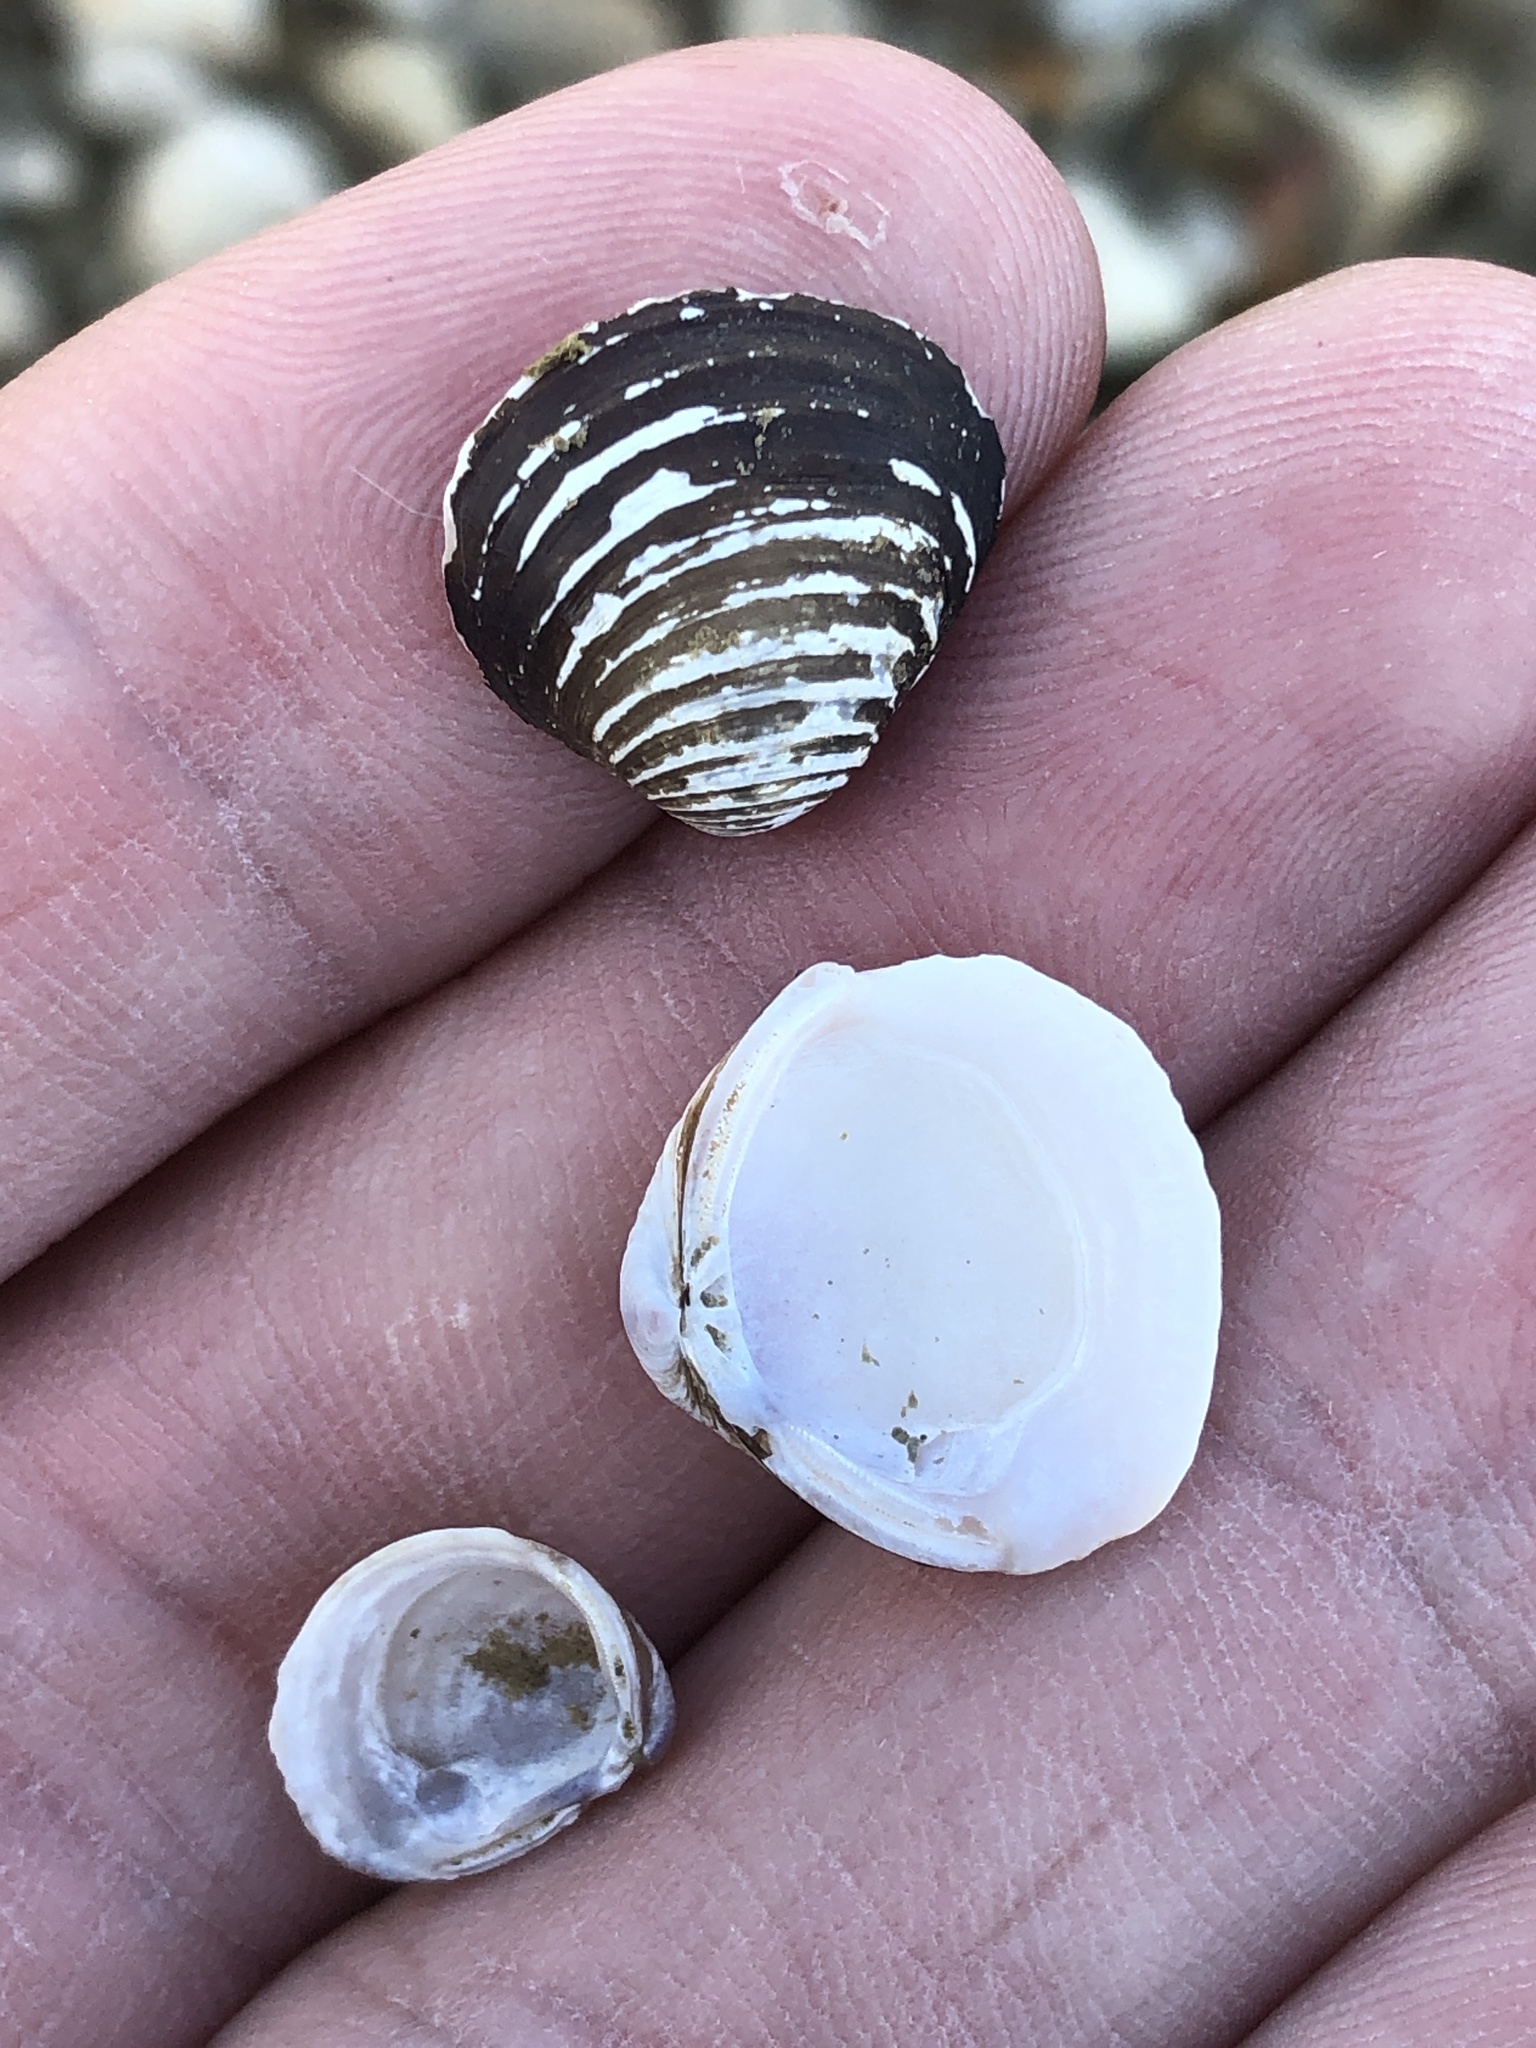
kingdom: Animalia
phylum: Mollusca
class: Bivalvia
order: Venerida
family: Cyrenidae
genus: Corbicula
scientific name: Corbicula fluminea
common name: Asian clam
